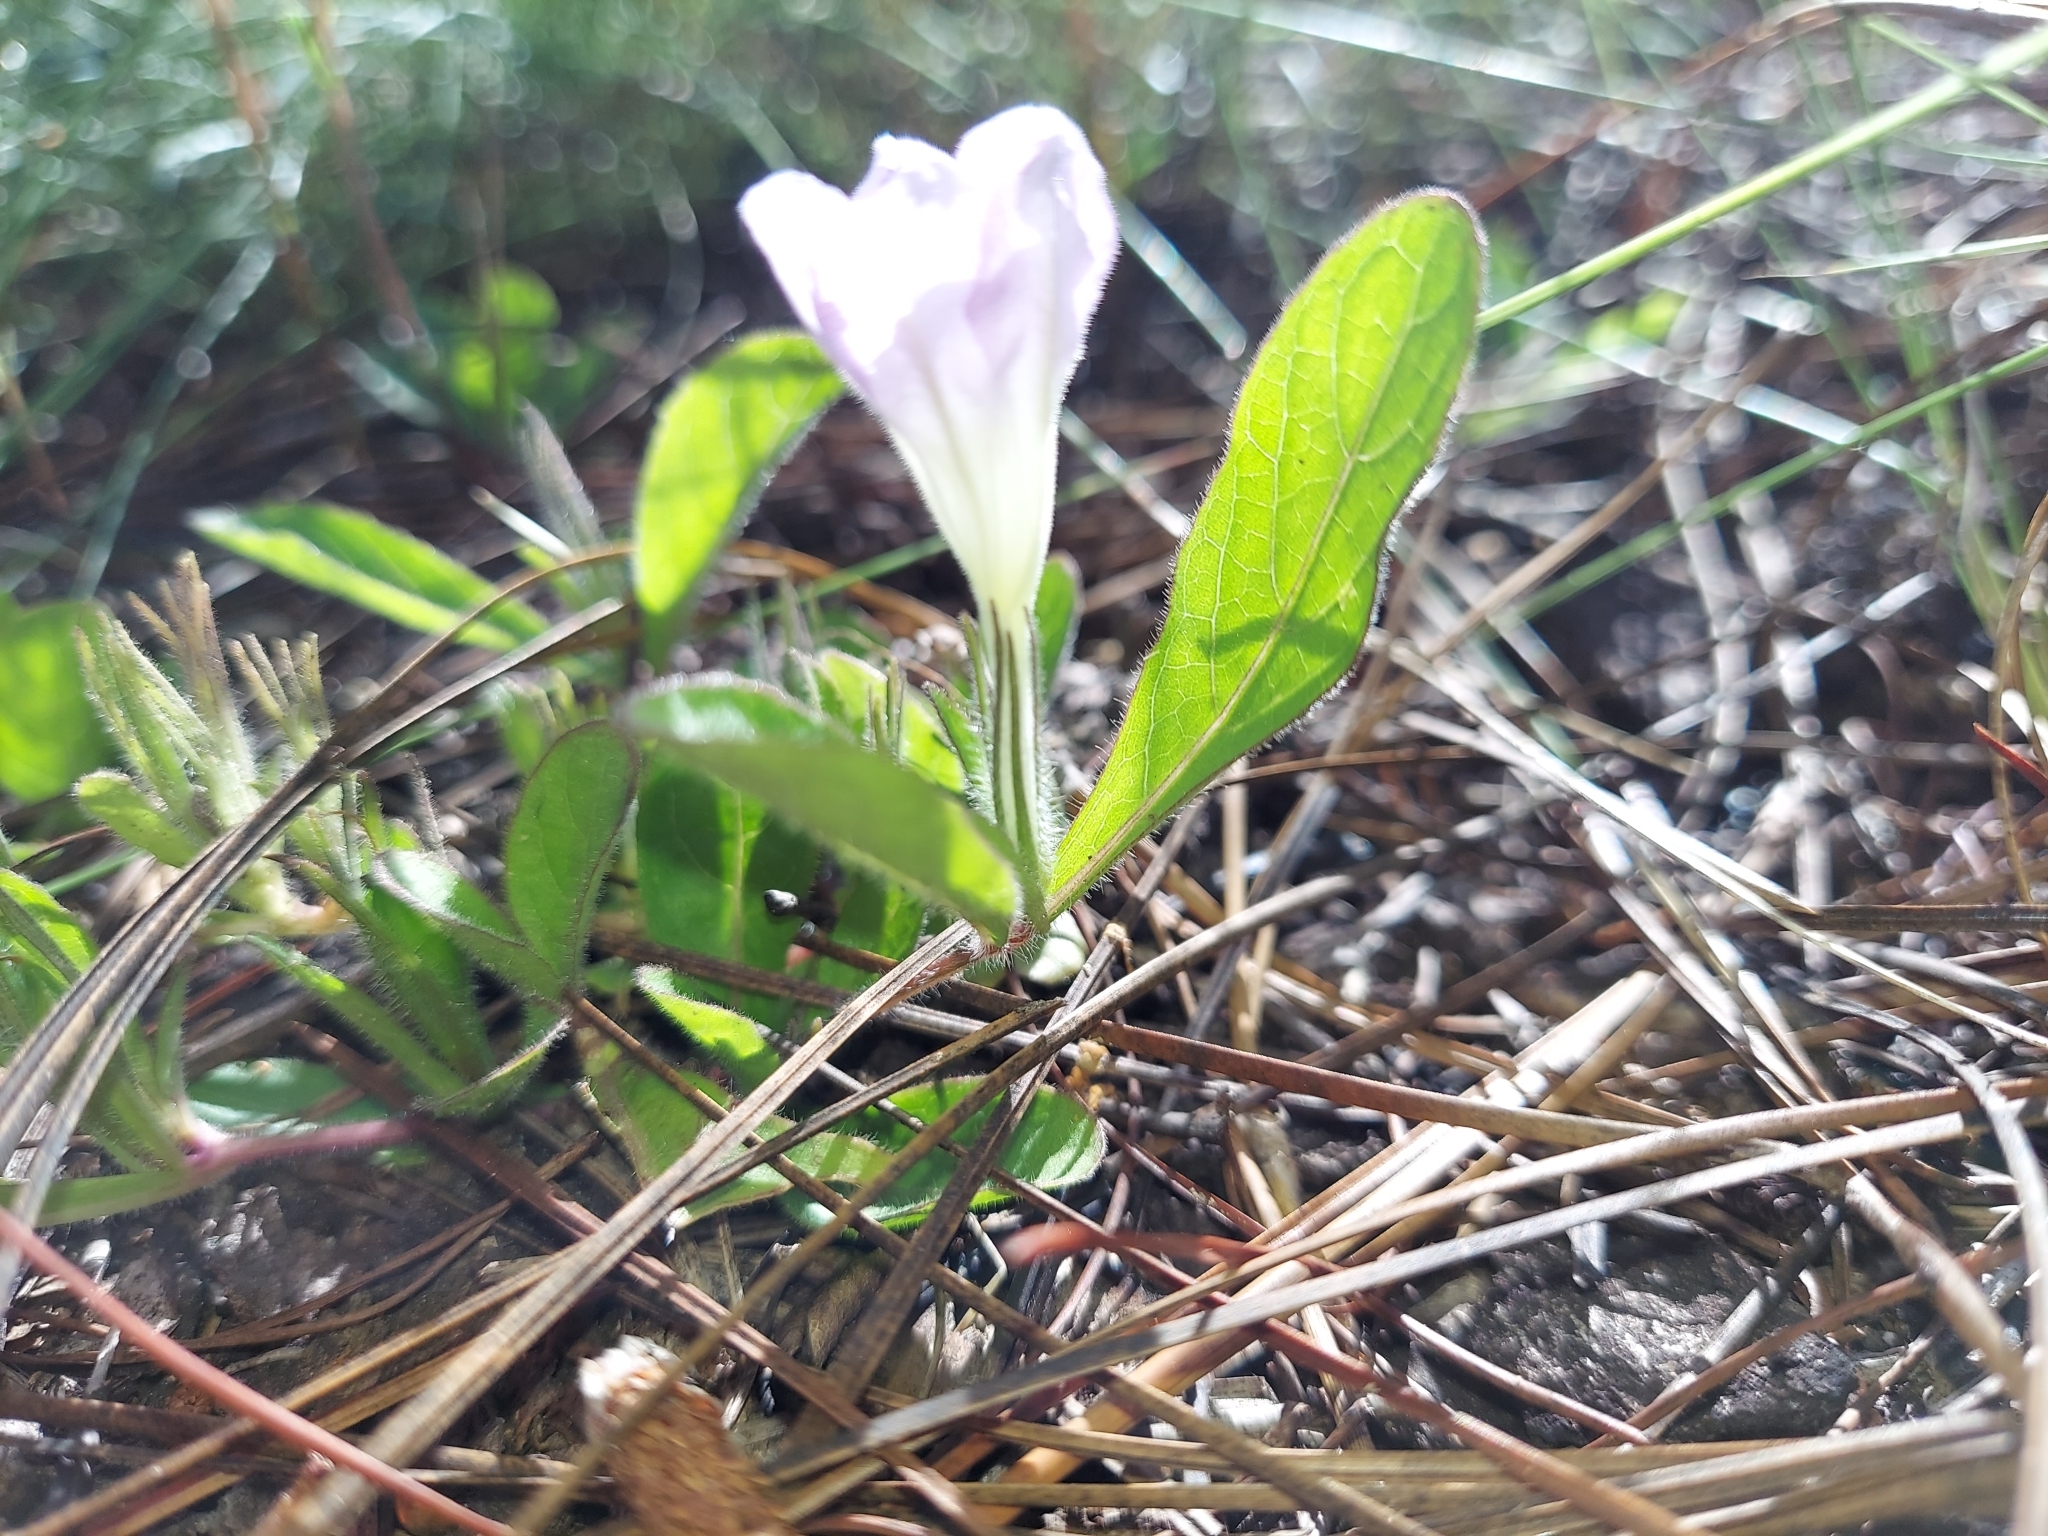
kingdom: Plantae
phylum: Tracheophyta
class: Magnoliopsida
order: Lamiales
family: Acanthaceae
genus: Ruellia
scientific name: Ruellia caroliniensis
